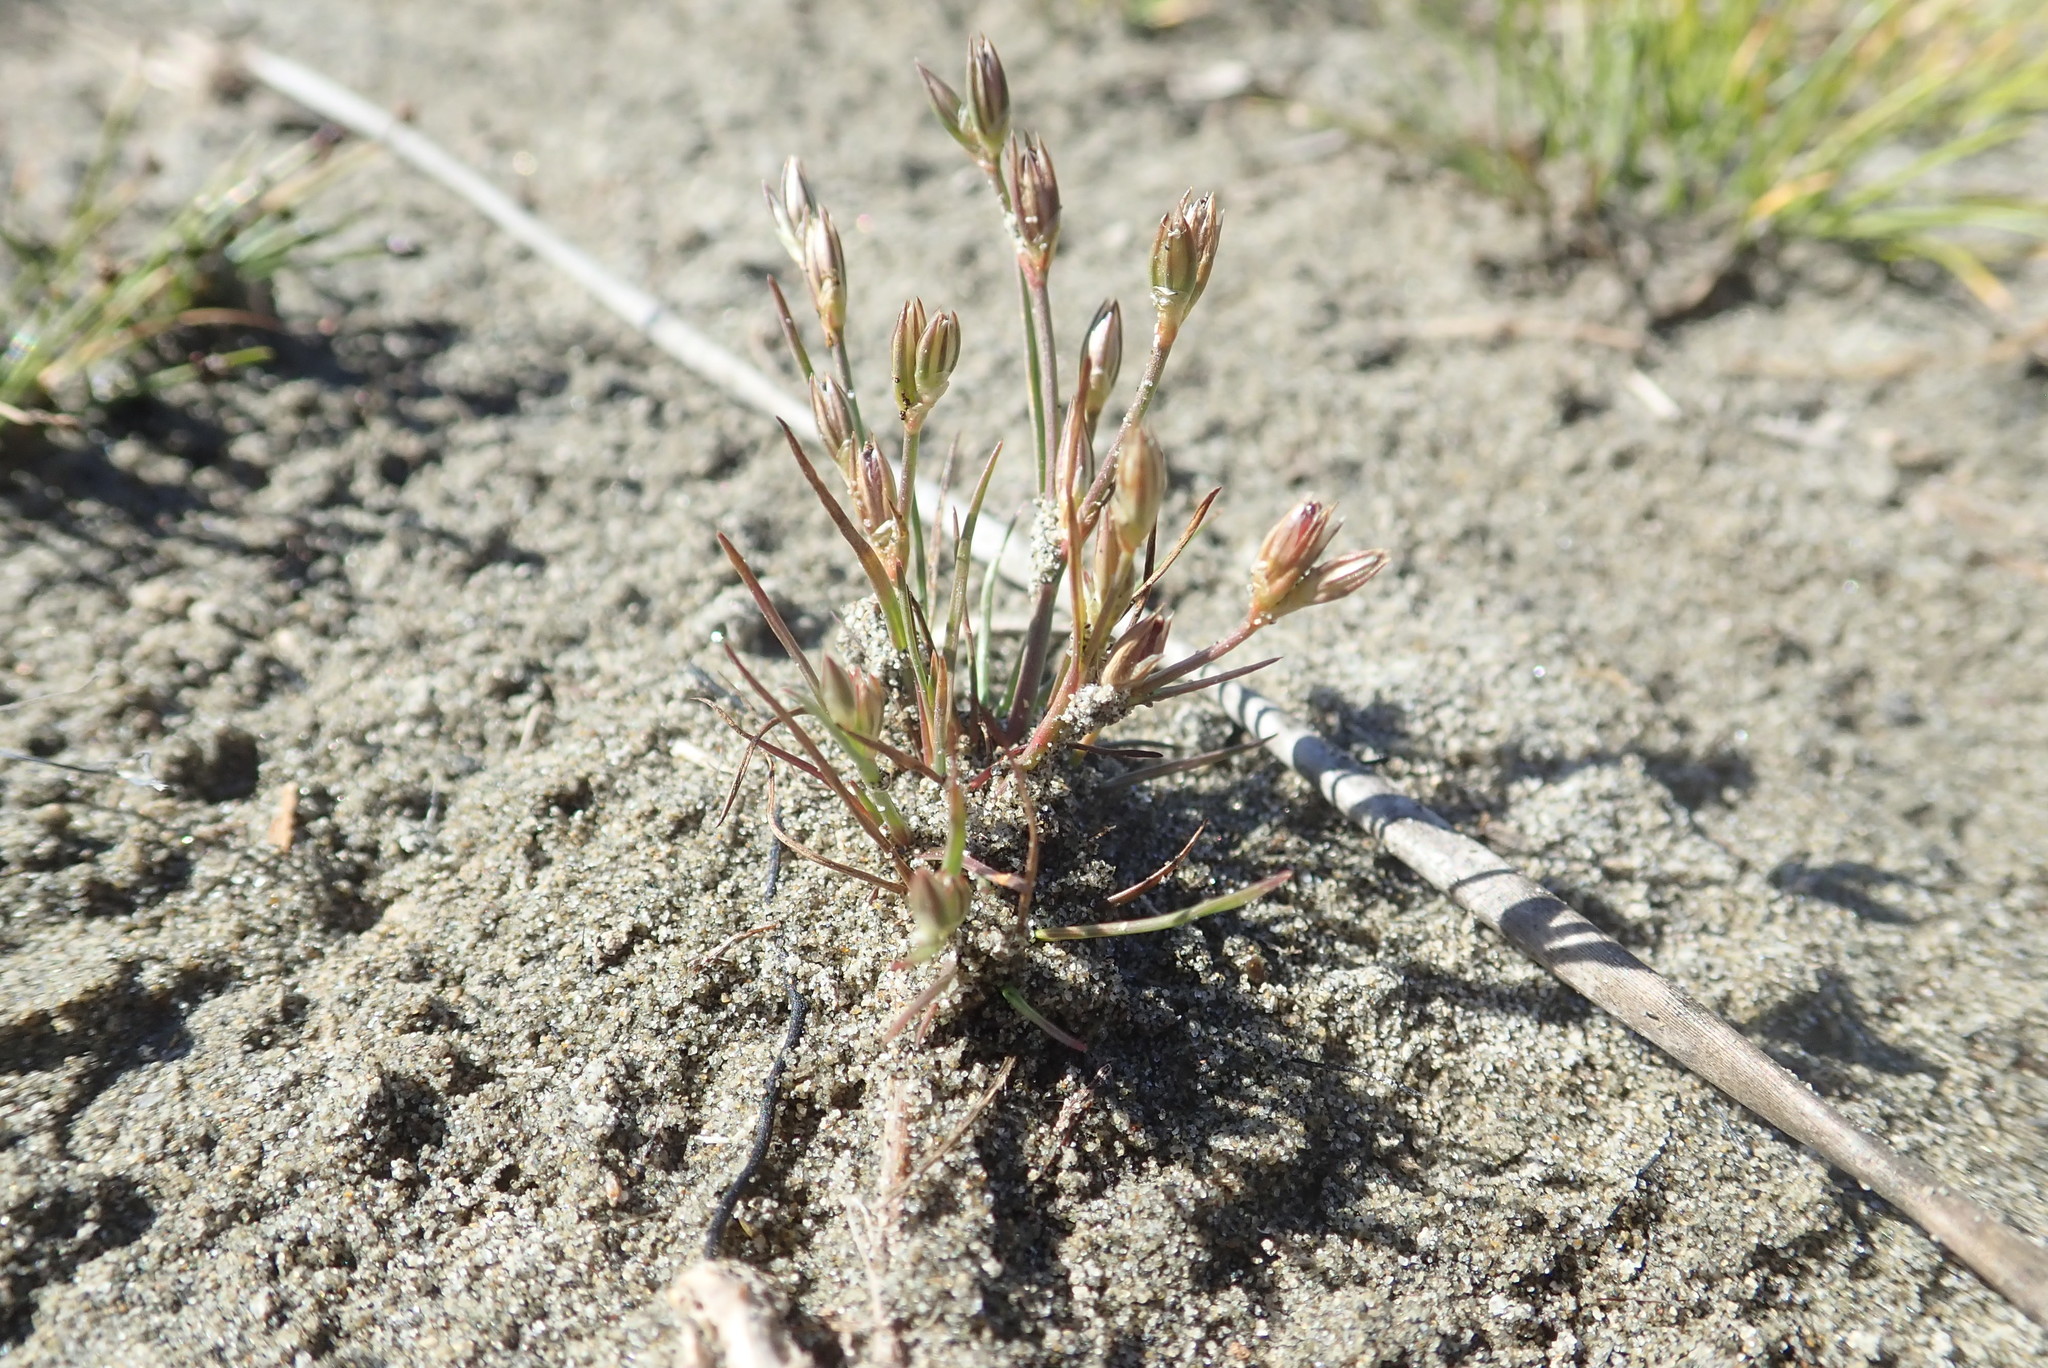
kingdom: Plantae
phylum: Tracheophyta
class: Liliopsida
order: Poales
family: Juncaceae
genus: Juncus
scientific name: Juncus bufonius
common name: Toad rush
